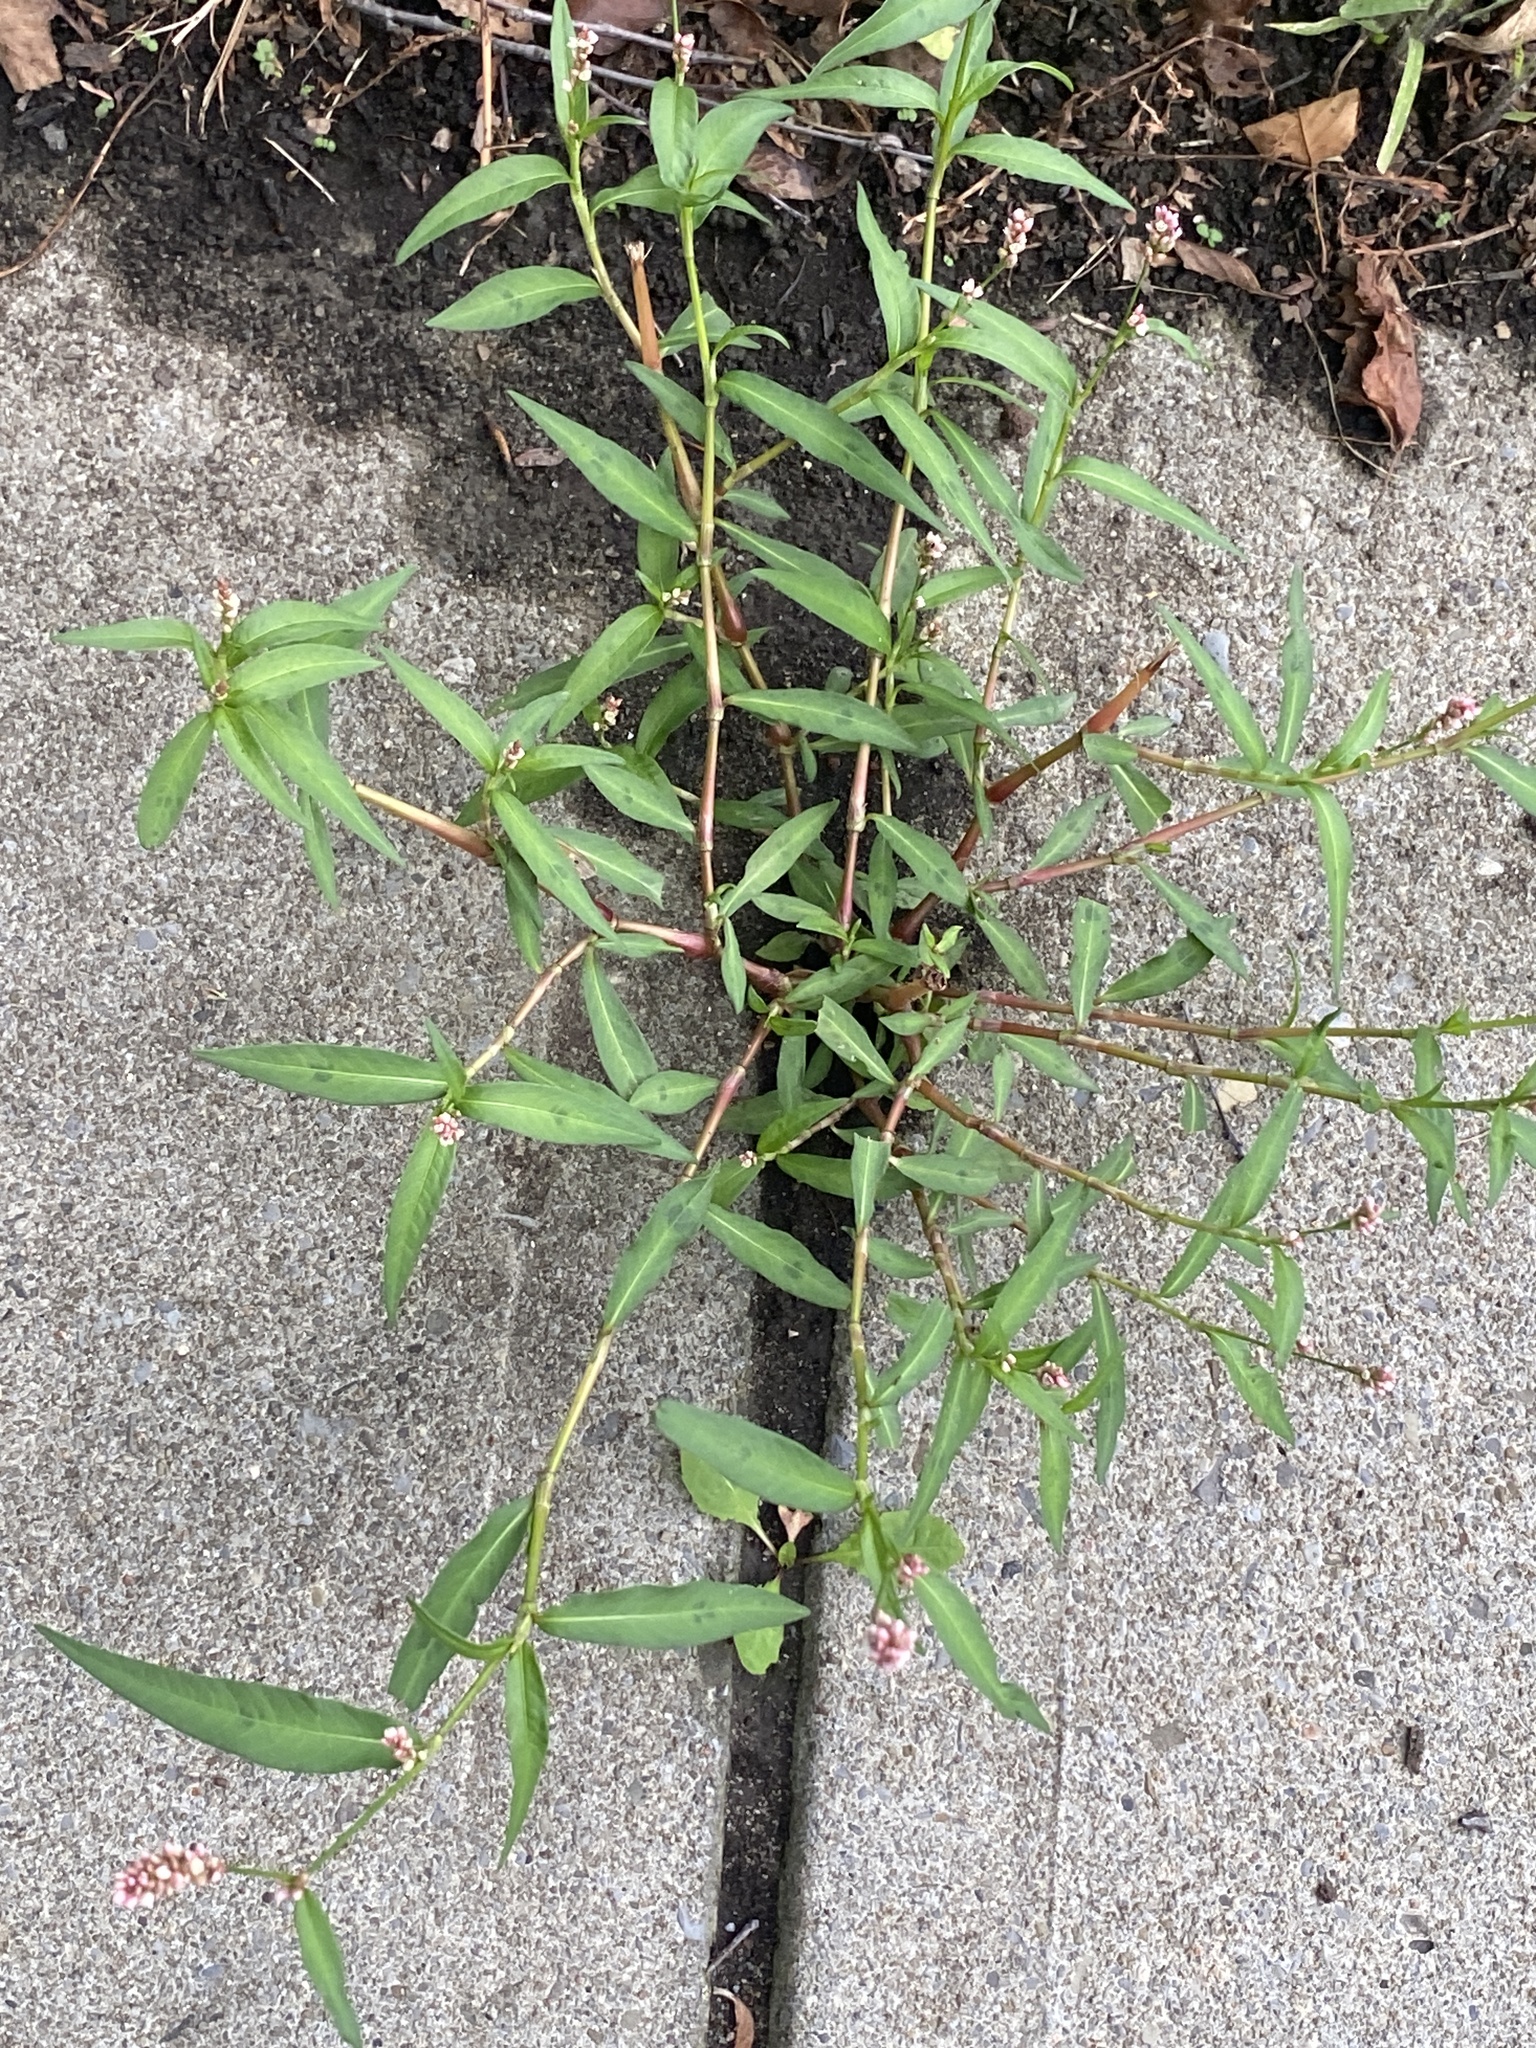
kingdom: Plantae
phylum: Tracheophyta
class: Magnoliopsida
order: Caryophyllales
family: Polygonaceae
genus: Persicaria
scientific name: Persicaria maculosa
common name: Redshank
